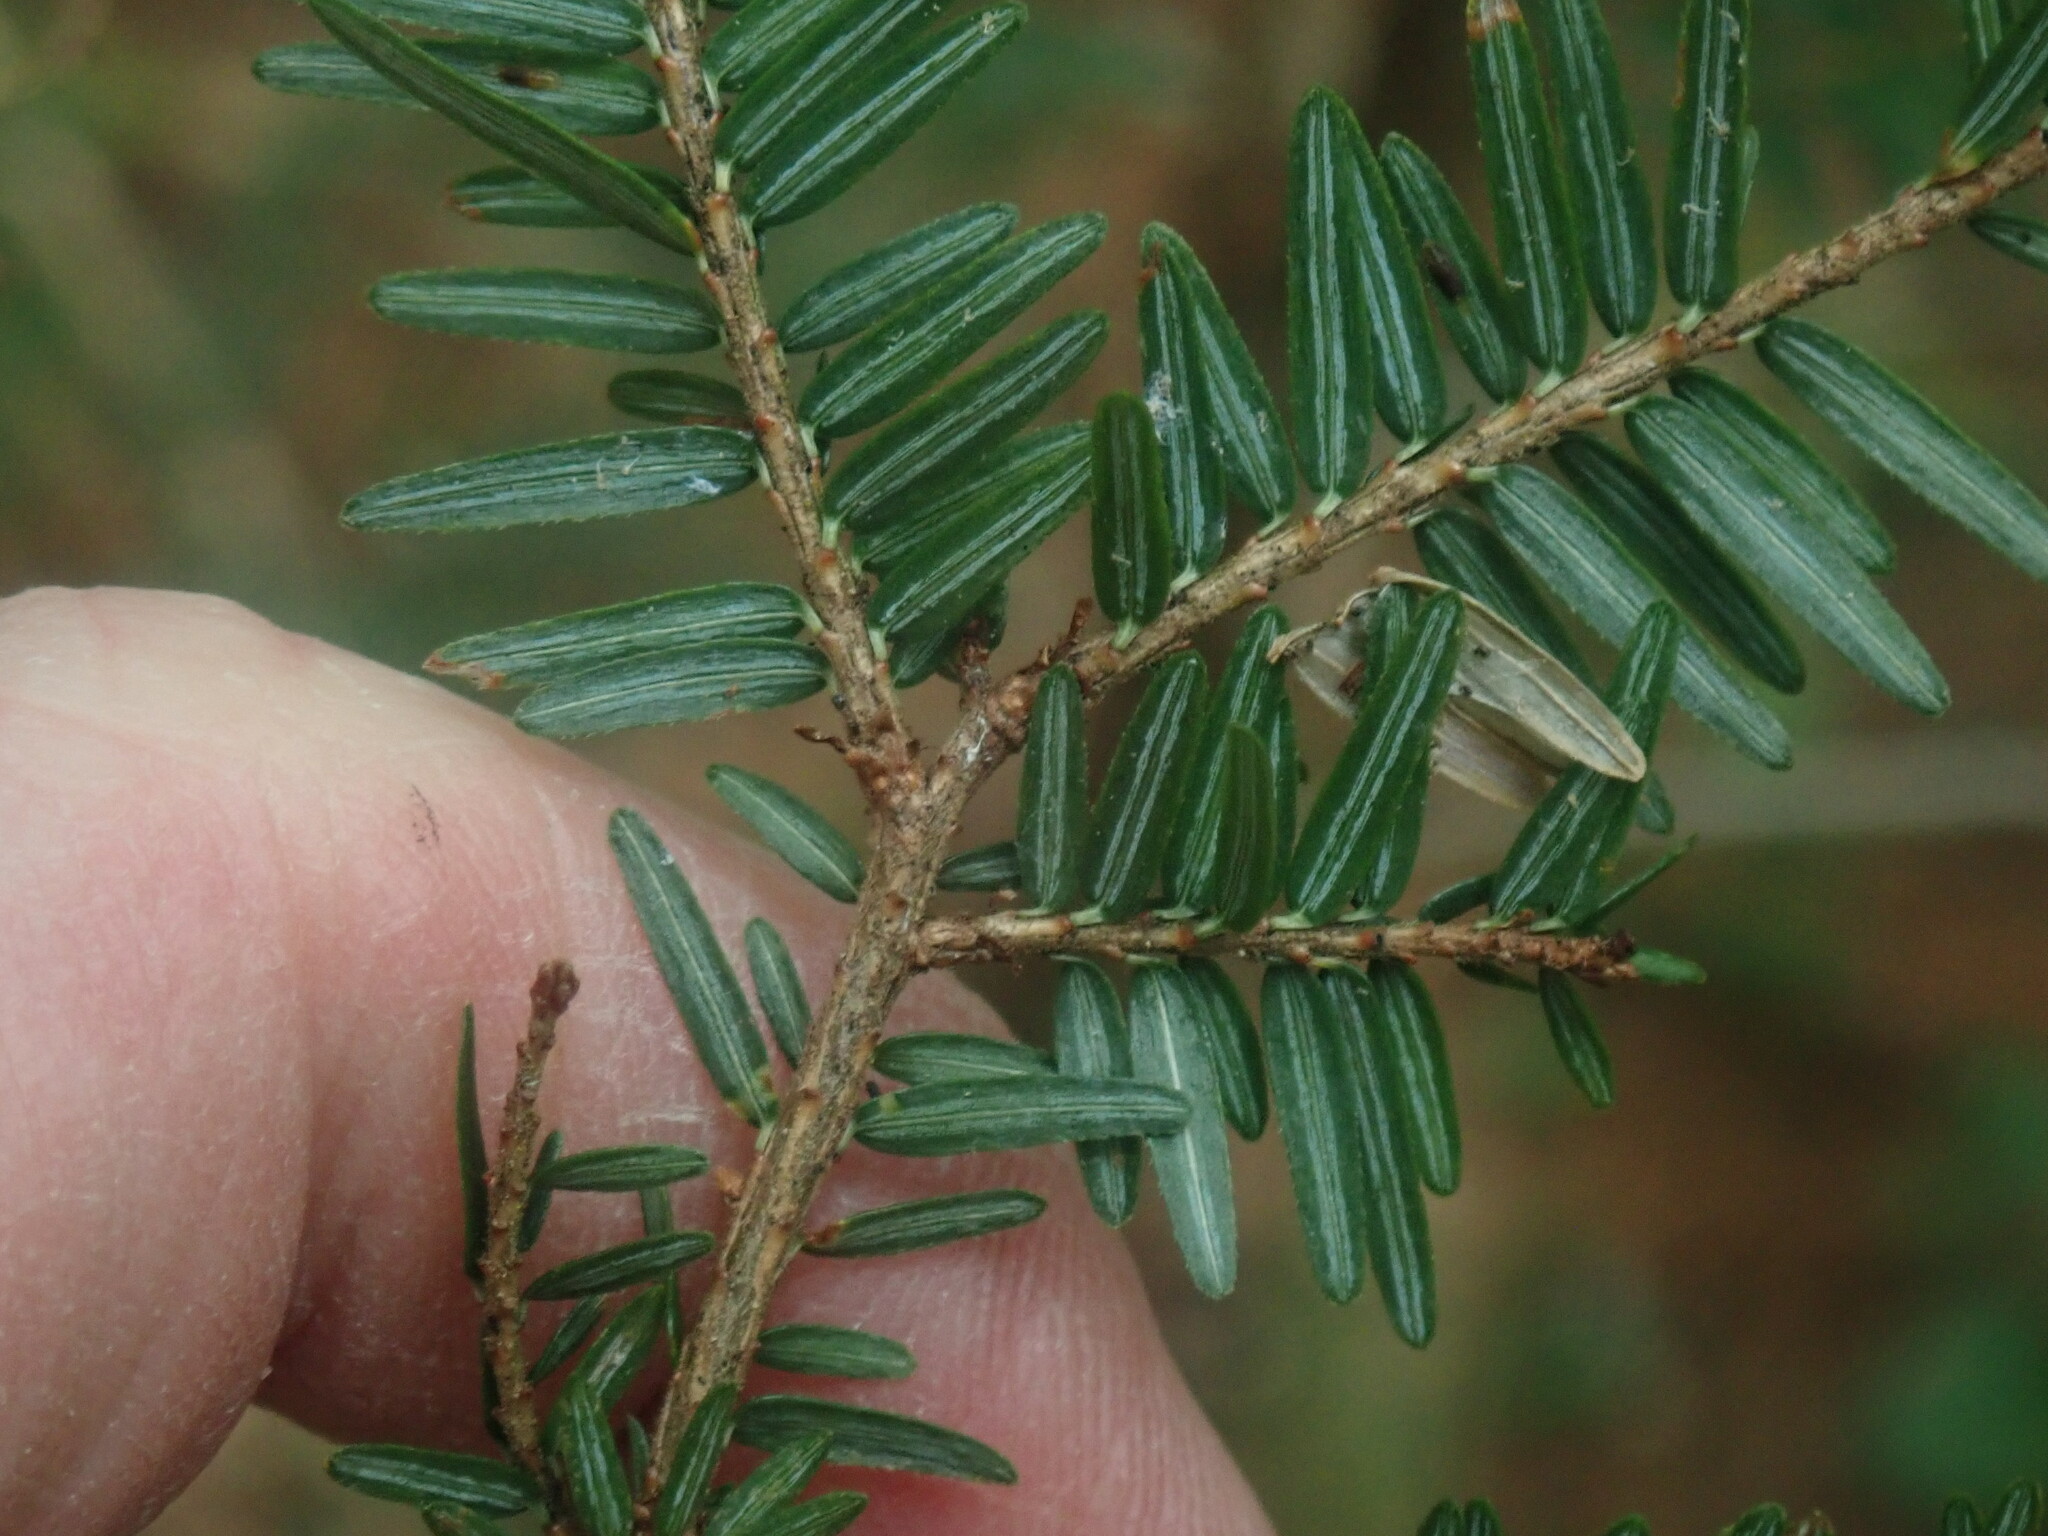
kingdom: Plantae
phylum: Tracheophyta
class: Pinopsida
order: Pinales
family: Pinaceae
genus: Tsuga
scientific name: Tsuga canadensis
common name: Eastern hemlock
